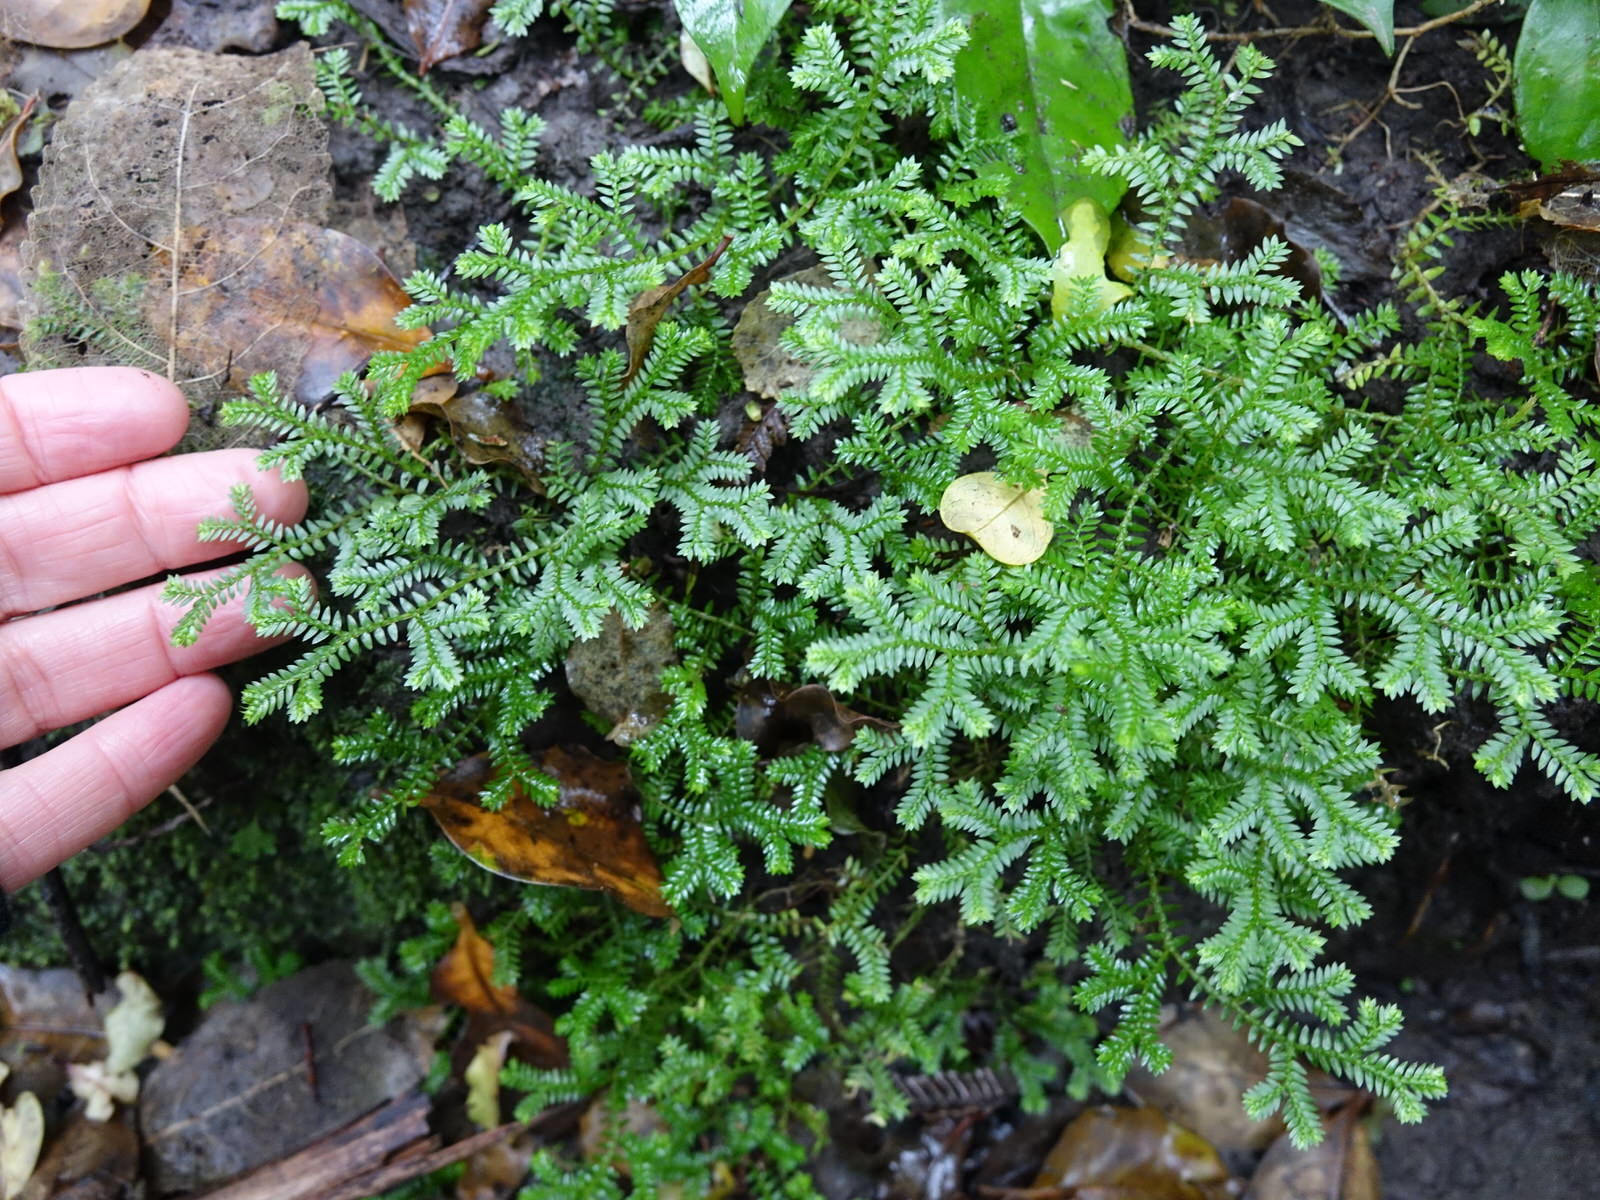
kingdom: Plantae
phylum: Tracheophyta
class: Lycopodiopsida
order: Selaginellales
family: Selaginellaceae
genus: Selaginella
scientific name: Selaginella kraussiana
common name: Krauss' spikemoss
